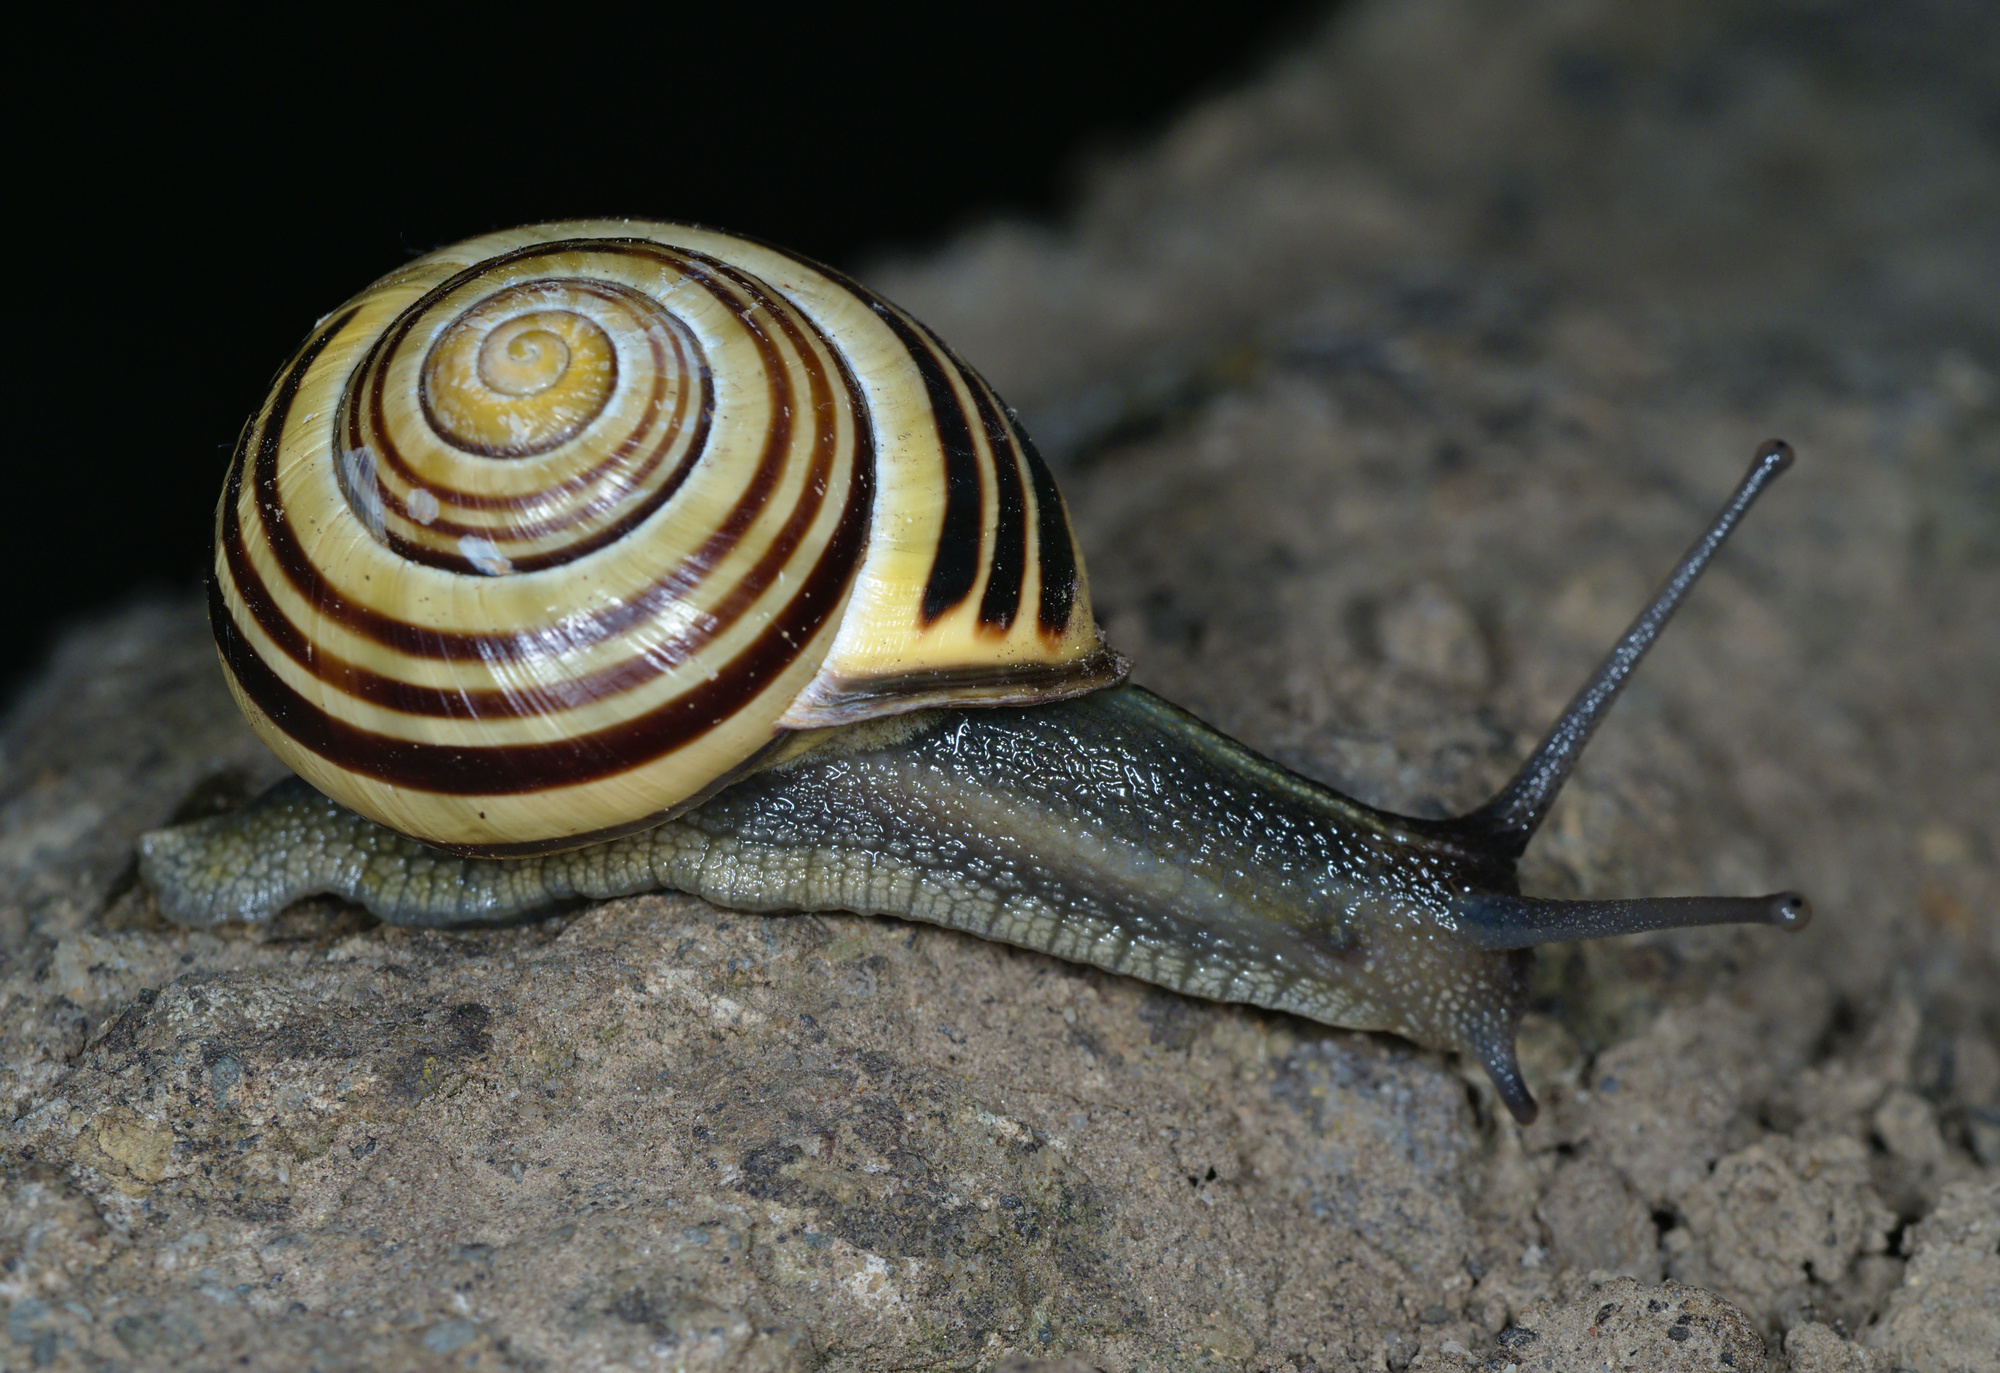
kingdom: Animalia
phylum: Mollusca
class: Gastropoda
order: Stylommatophora
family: Helicidae
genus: Cepaea
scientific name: Cepaea nemoralis
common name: Grovesnail
